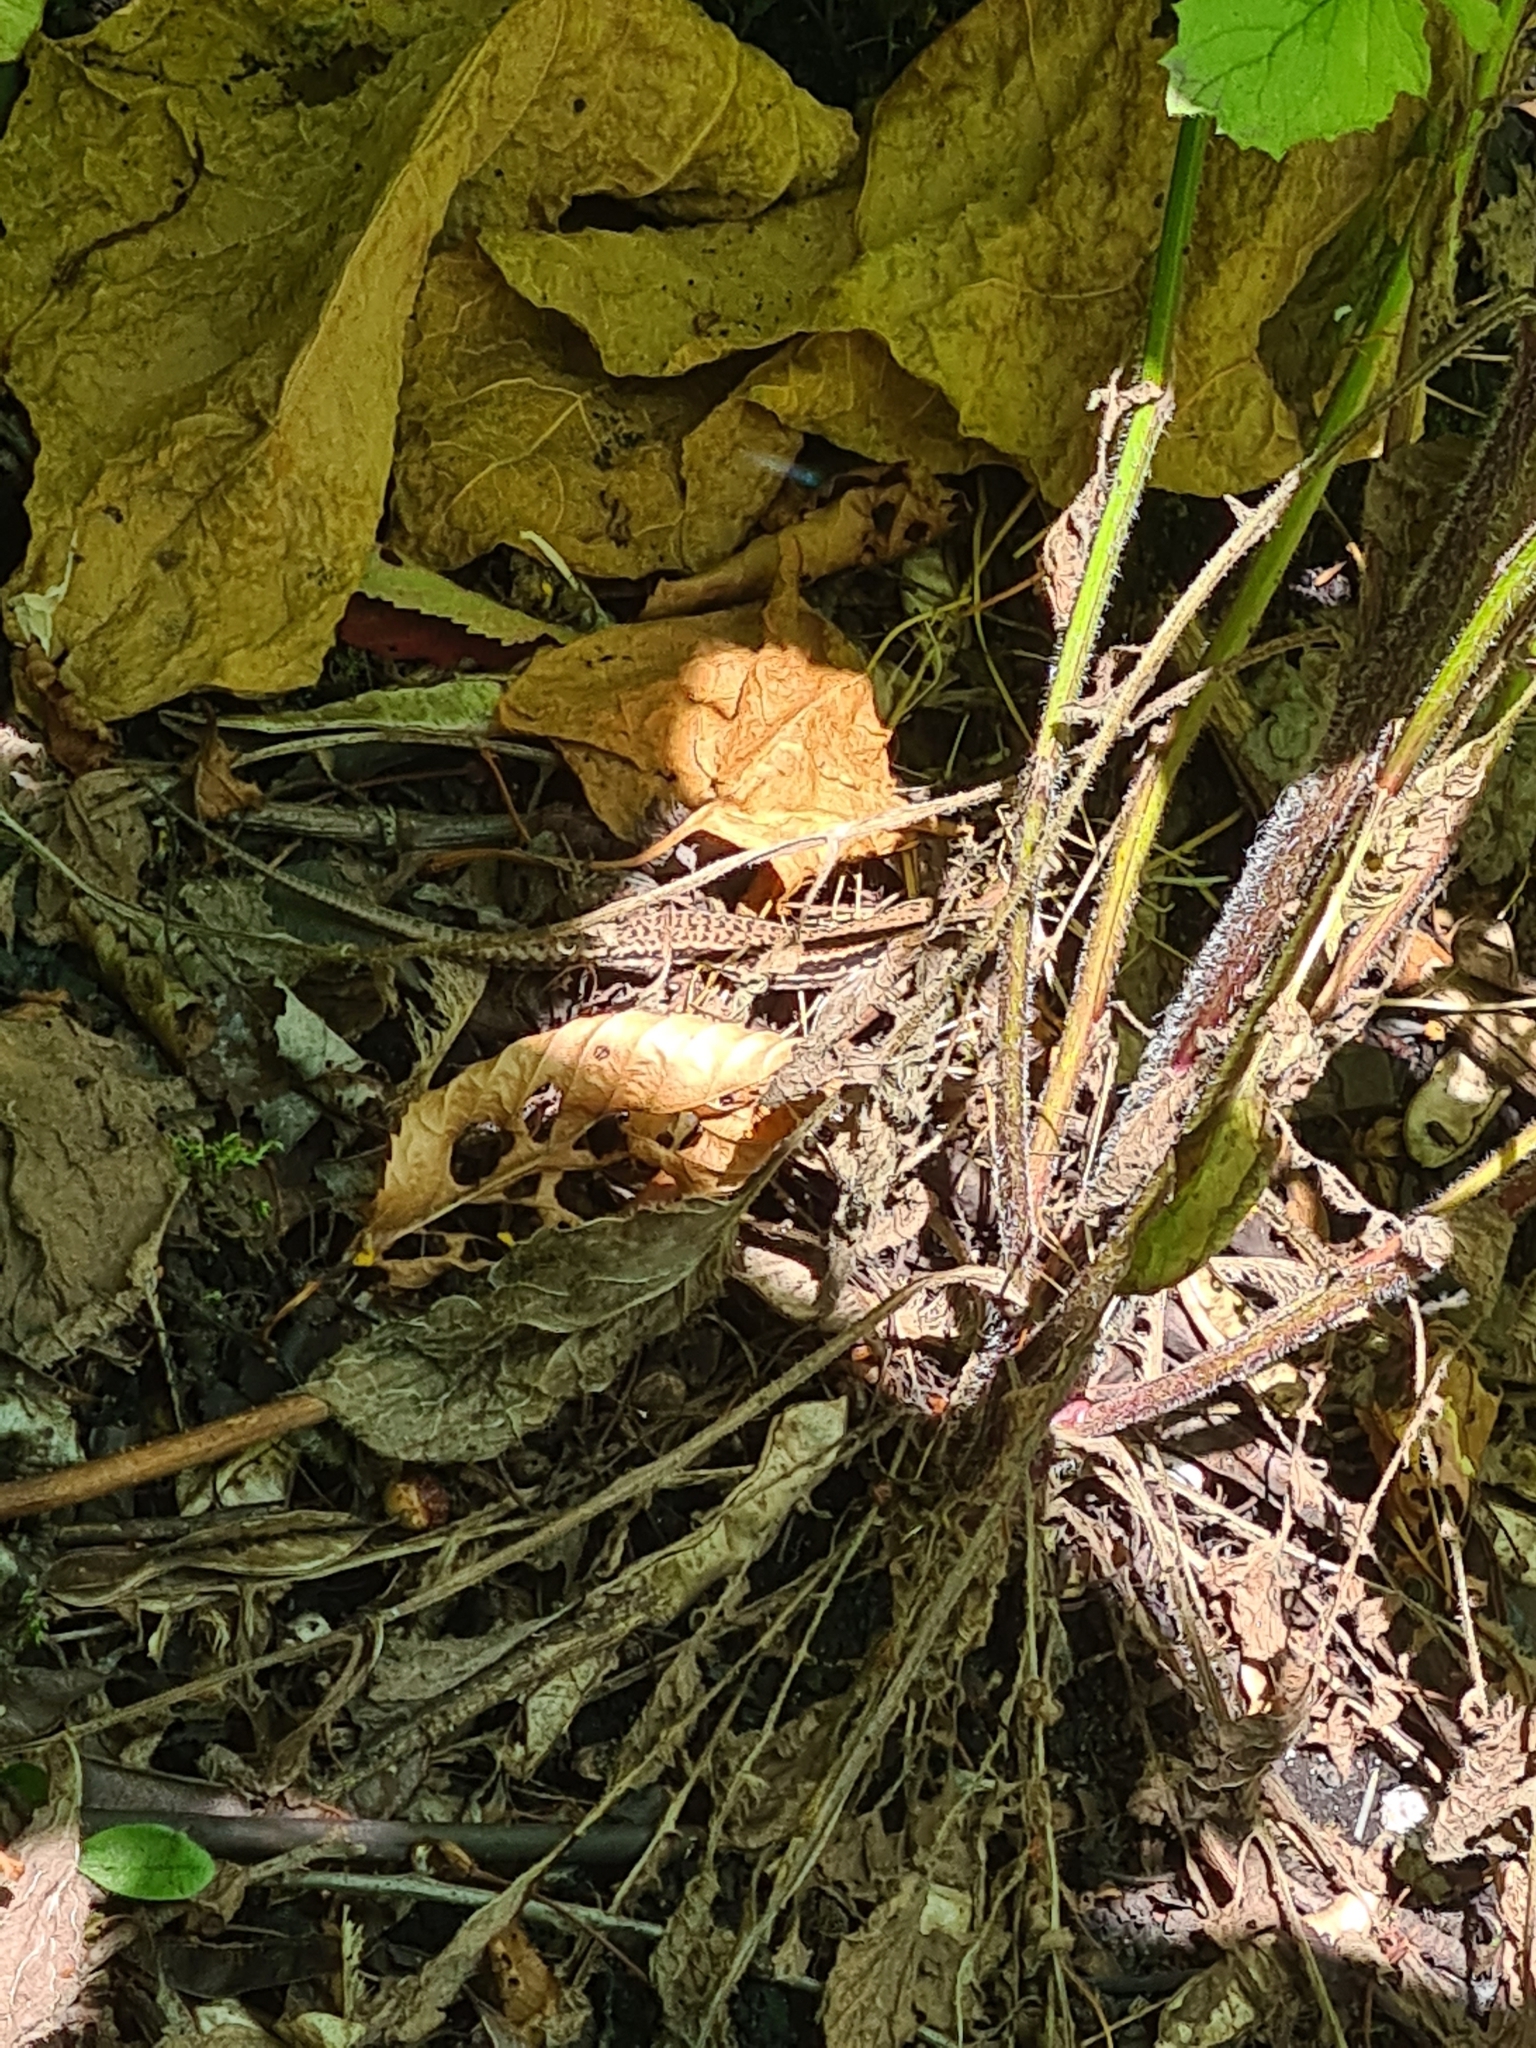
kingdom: Animalia
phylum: Chordata
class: Squamata
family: Lacertidae
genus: Podarcis
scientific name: Podarcis muralis
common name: Common wall lizard
